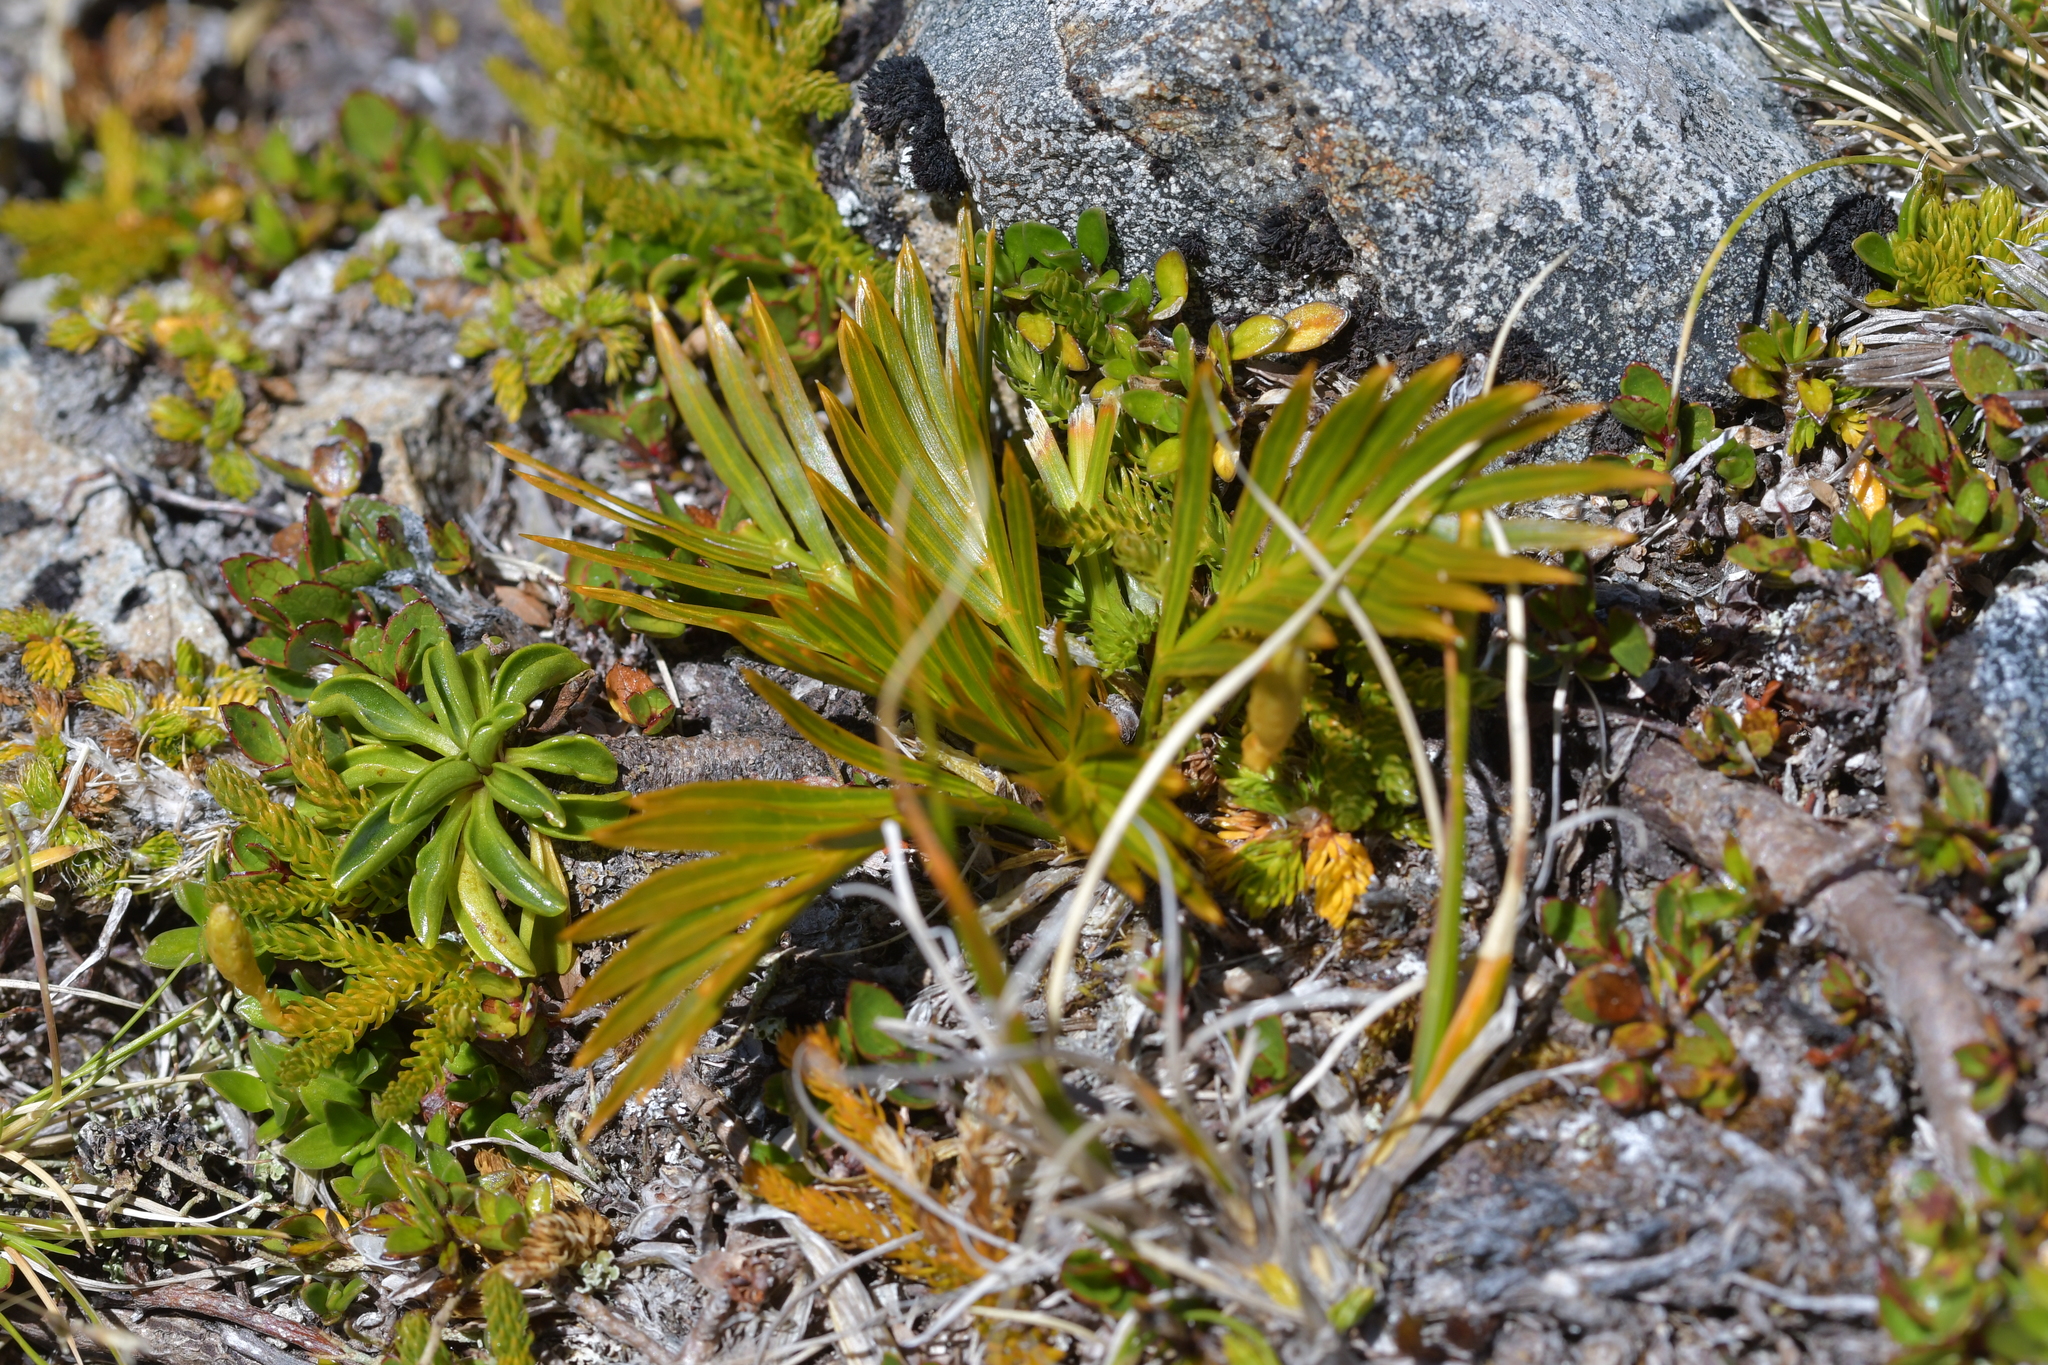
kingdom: Plantae
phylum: Tracheophyta
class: Magnoliopsida
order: Apiales
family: Apiaceae
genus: Aciphylla
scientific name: Aciphylla similis
